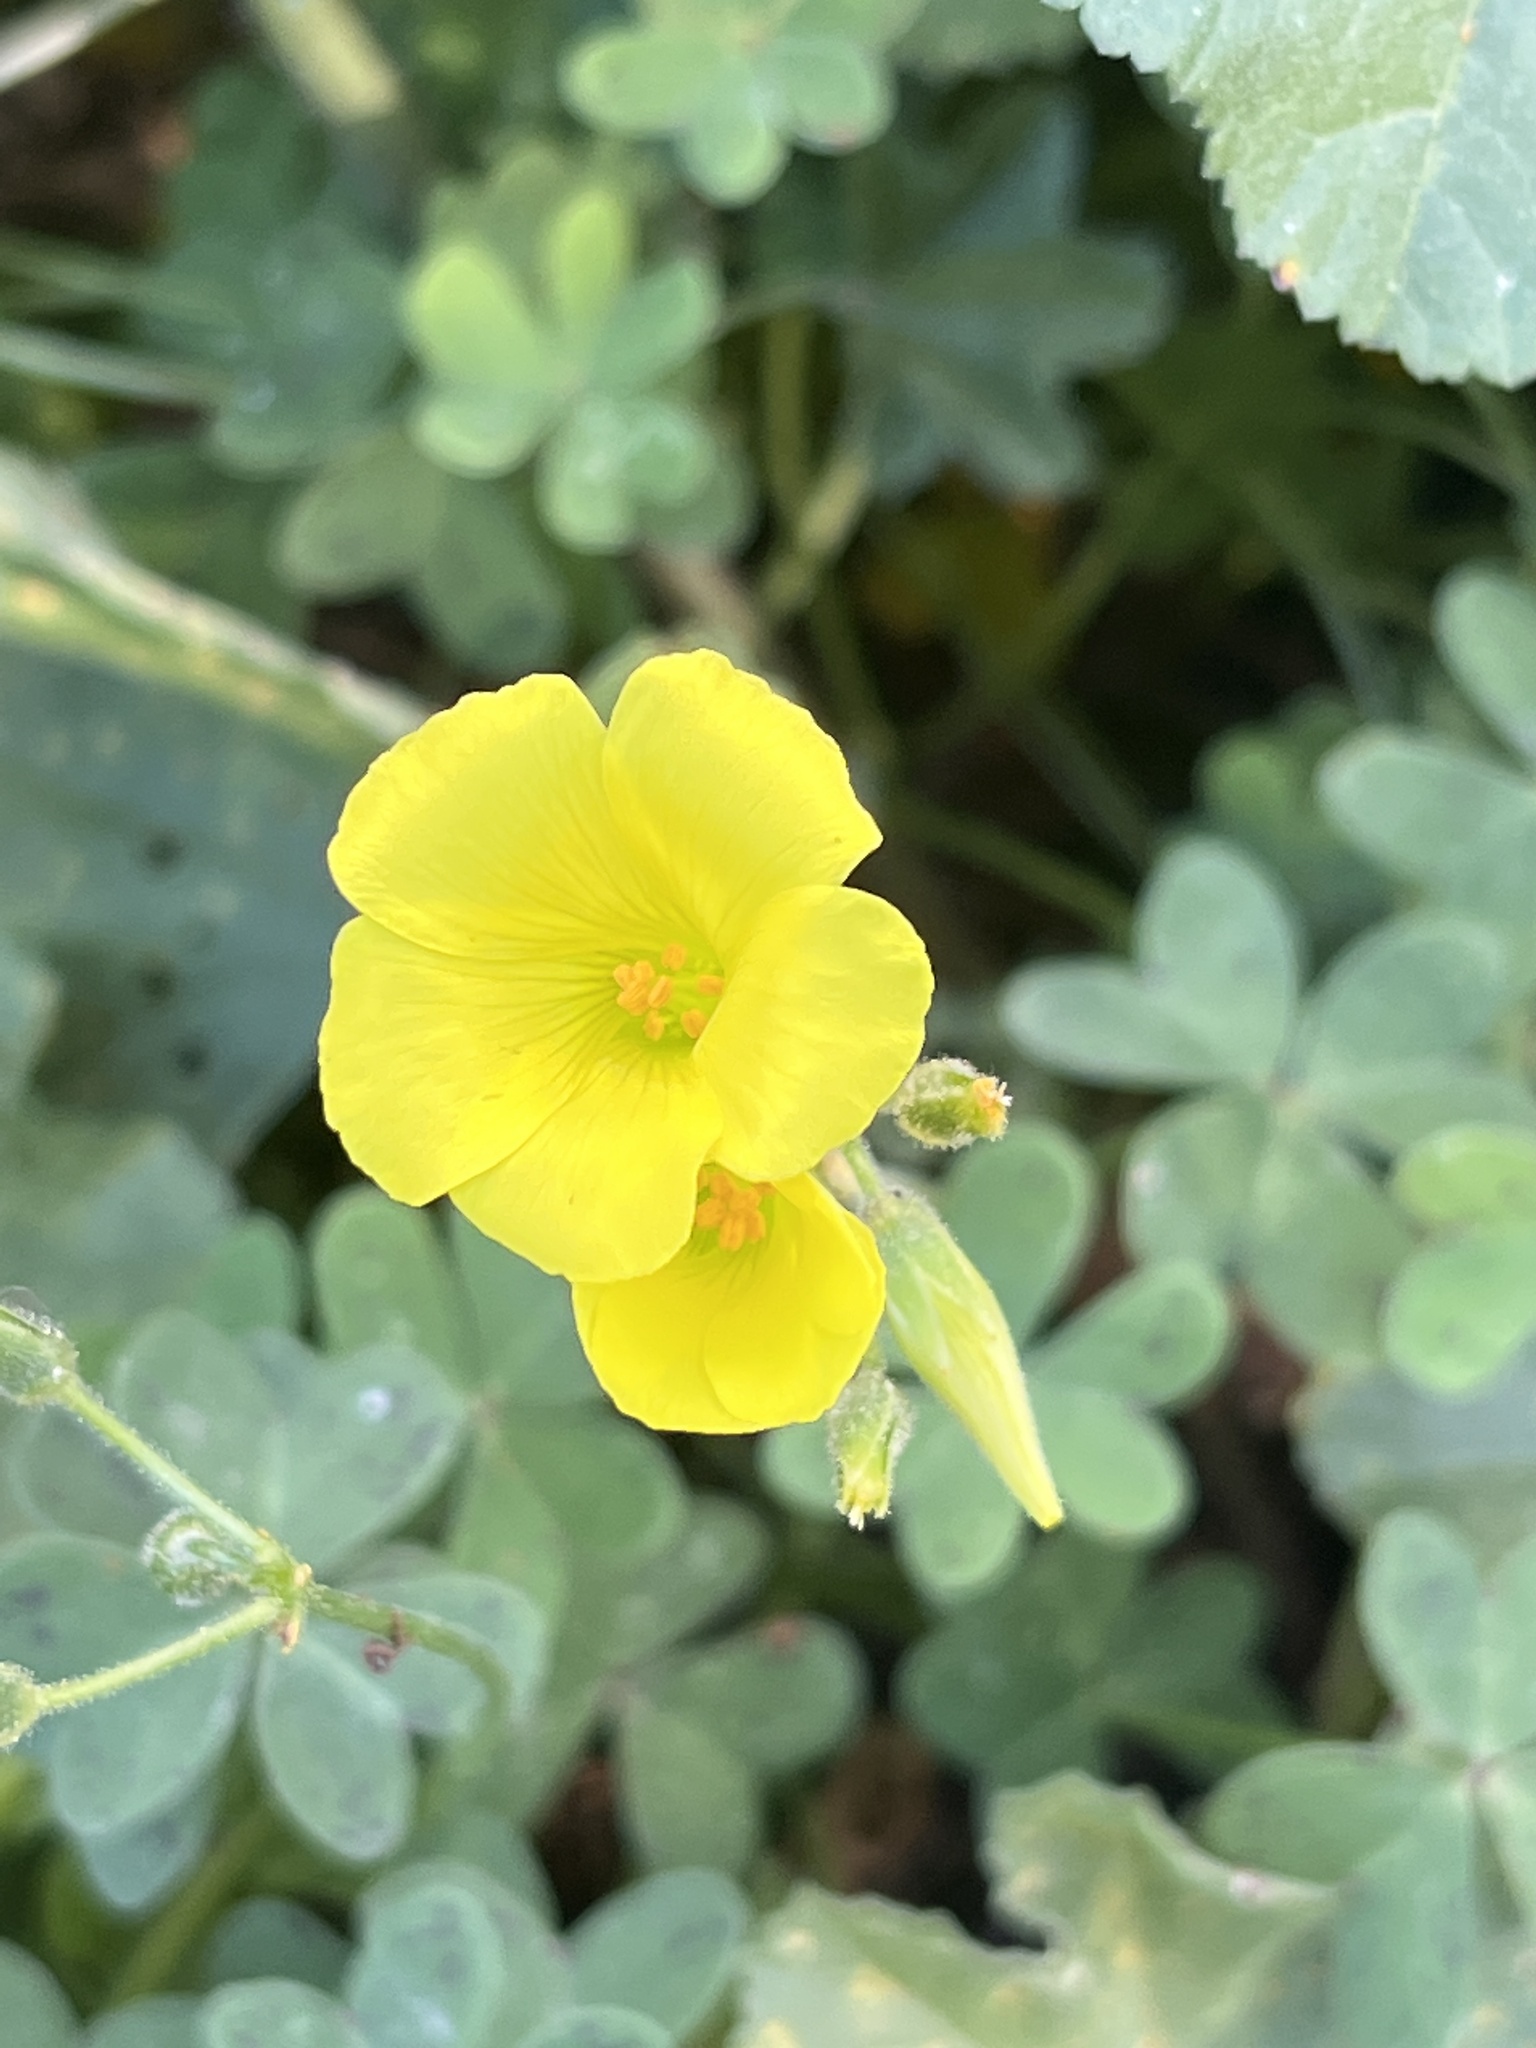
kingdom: Plantae
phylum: Tracheophyta
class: Magnoliopsida
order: Oxalidales
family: Oxalidaceae
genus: Oxalis
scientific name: Oxalis pes-caprae
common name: Bermuda-buttercup
